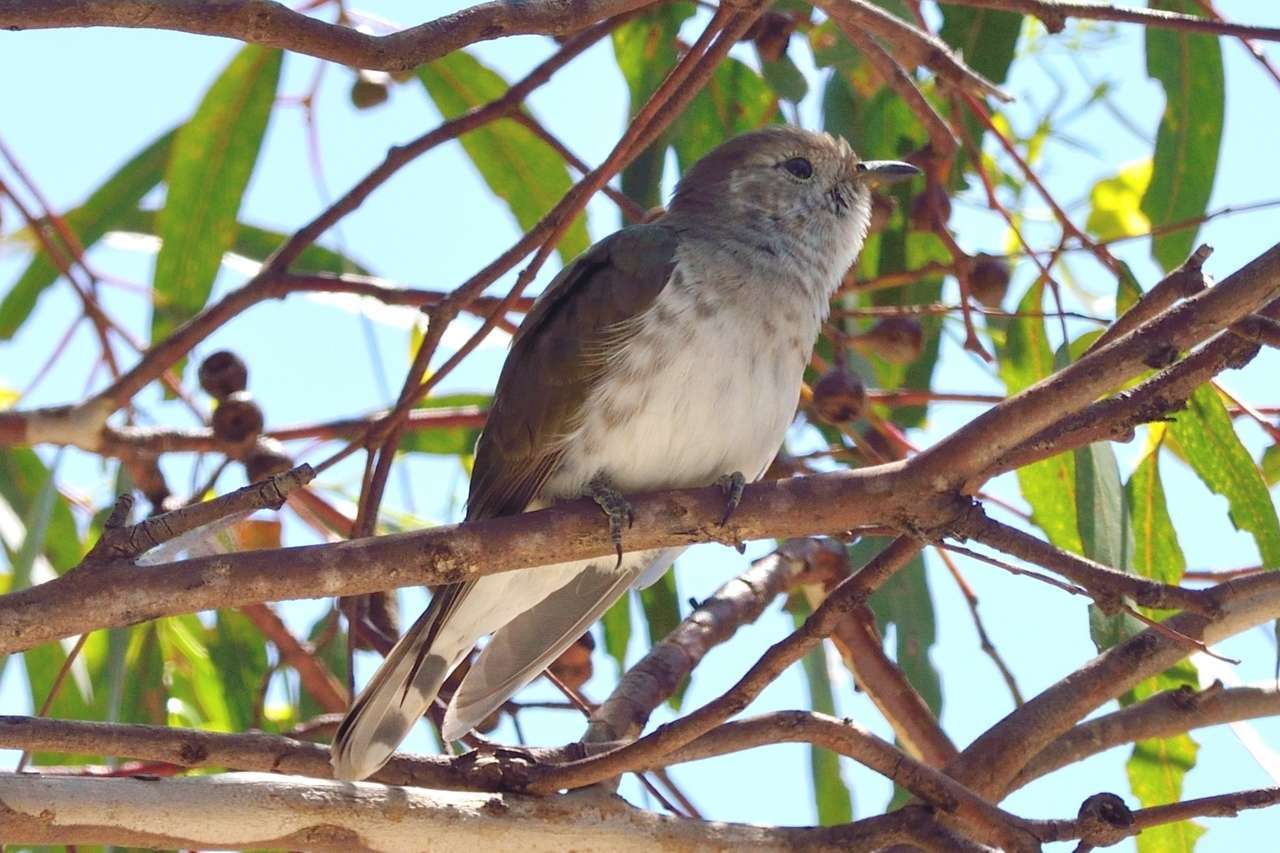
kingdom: Animalia
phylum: Chordata
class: Aves
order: Cuculiformes
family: Cuculidae
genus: Chrysococcyx
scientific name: Chrysococcyx lucidus
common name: Shining bronze cuckoo
